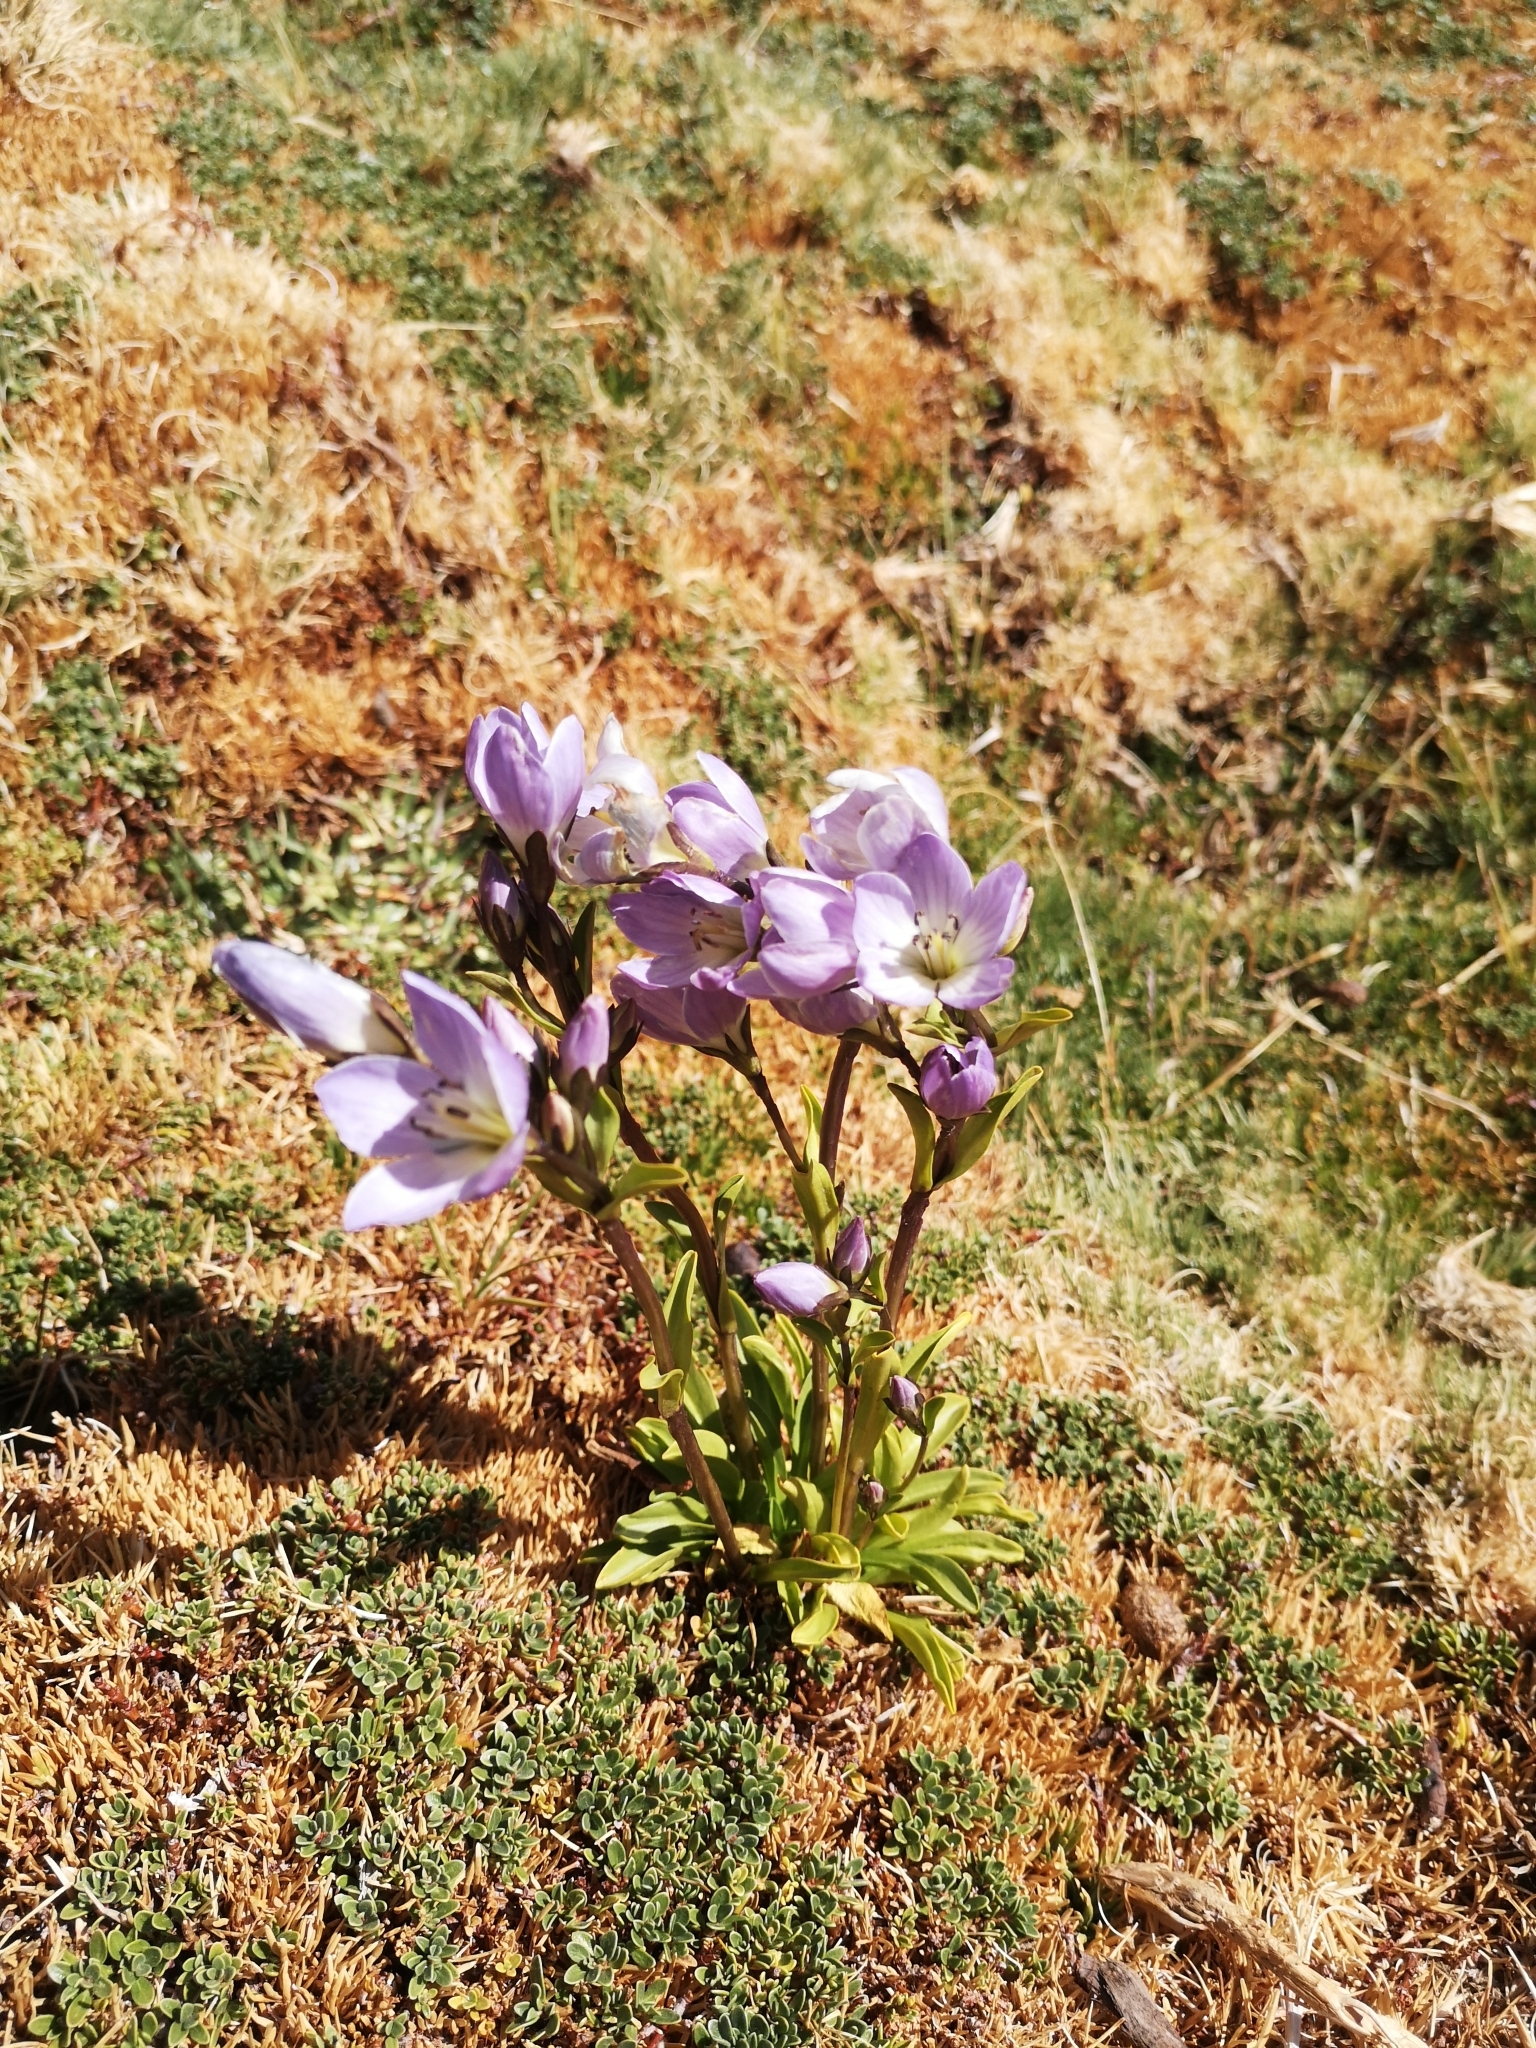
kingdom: Plantae
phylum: Tracheophyta
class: Magnoliopsida
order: Gentianales
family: Gentianaceae
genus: Gentianella
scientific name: Gentianella ottonis
